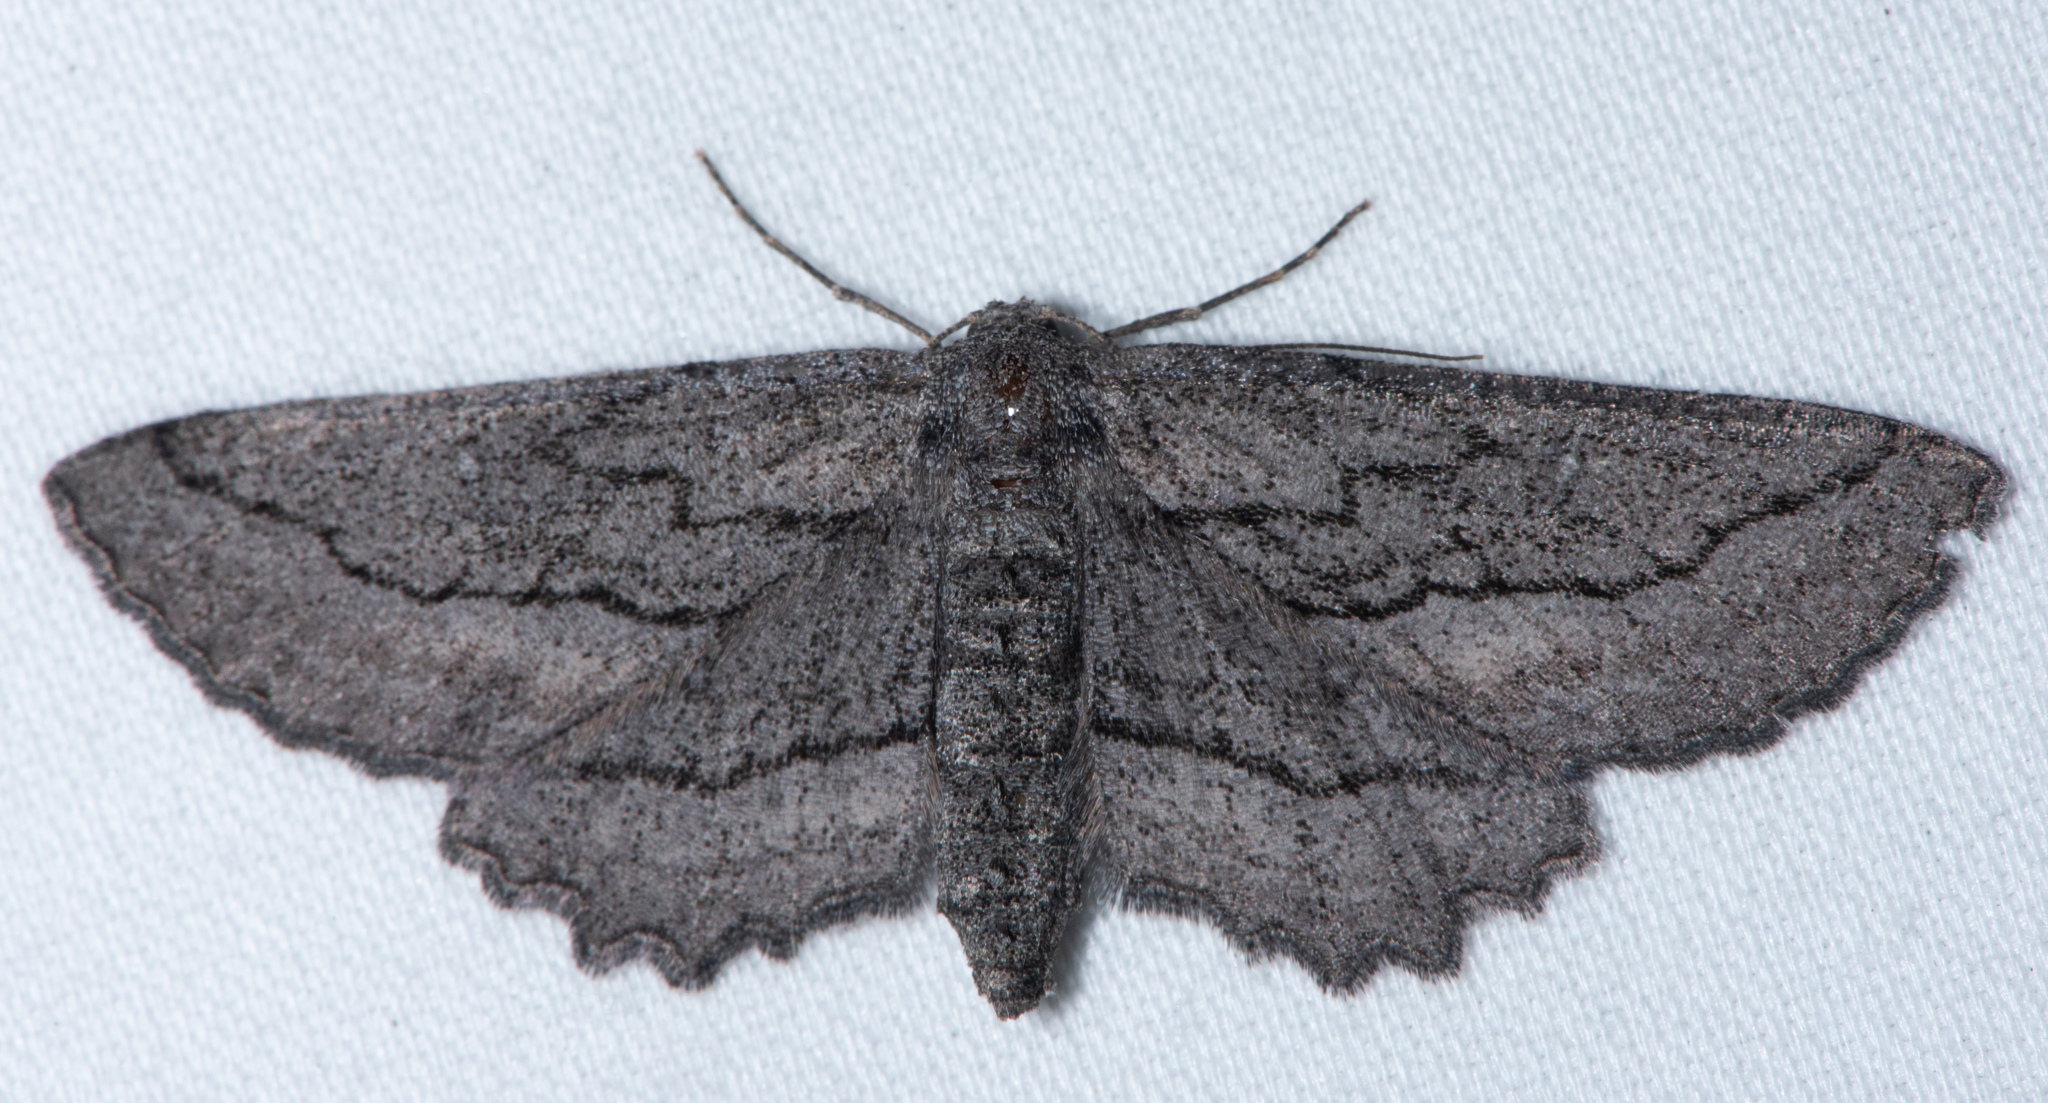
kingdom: Animalia
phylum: Arthropoda
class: Insecta
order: Lepidoptera
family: Geometridae
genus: Aethaloida
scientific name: Aethaloida packardaria
